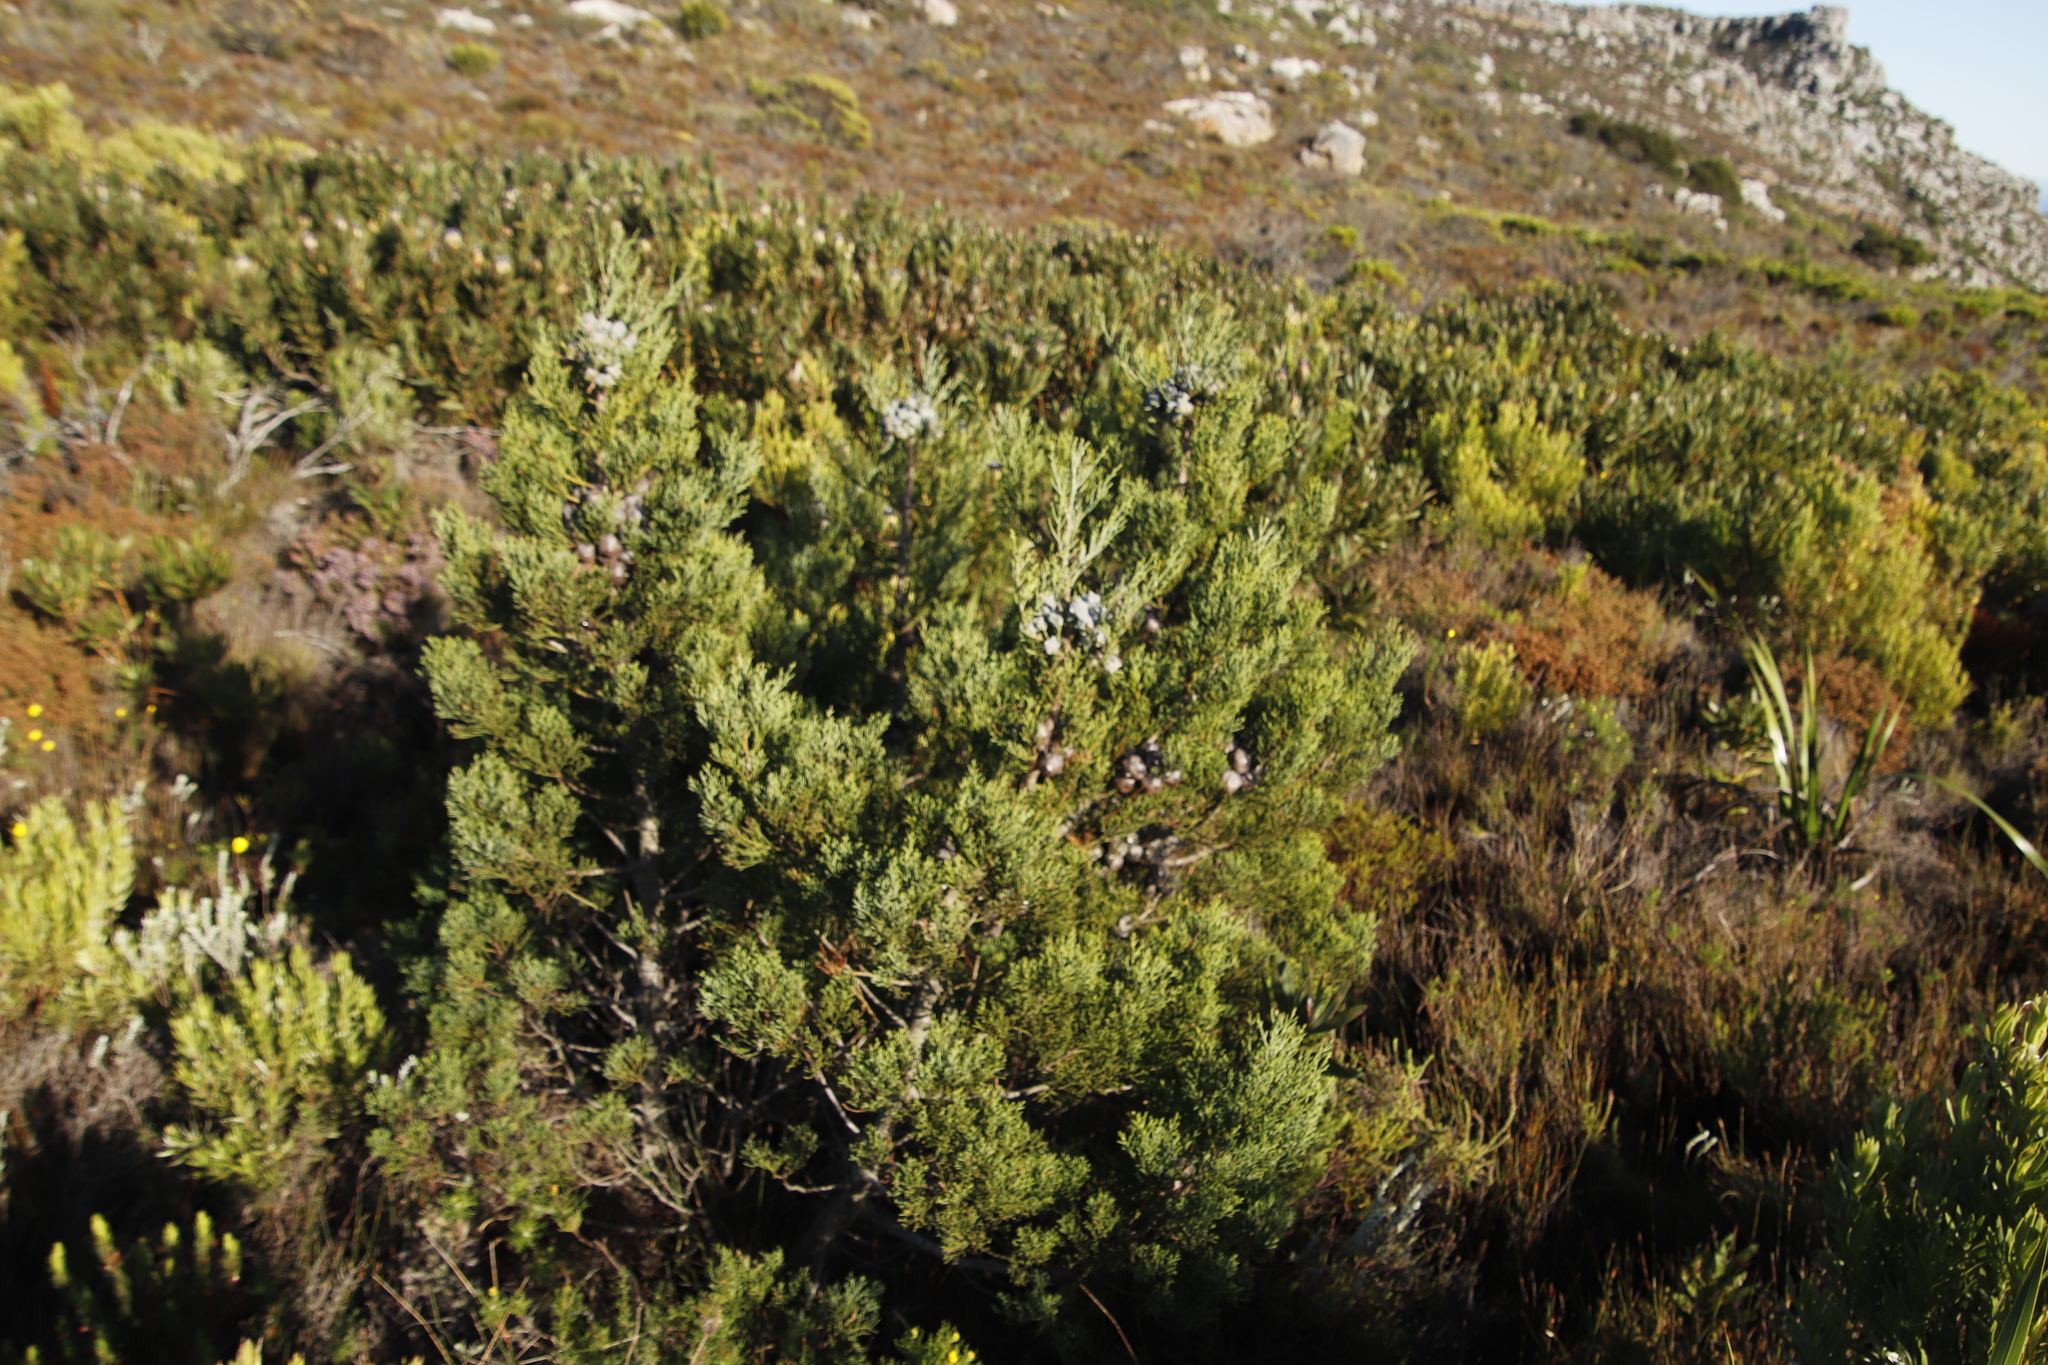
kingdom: Plantae
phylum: Tracheophyta
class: Pinopsida
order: Pinales
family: Cupressaceae
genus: Widdringtonia
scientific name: Widdringtonia nodiflora
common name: Cape cypress
